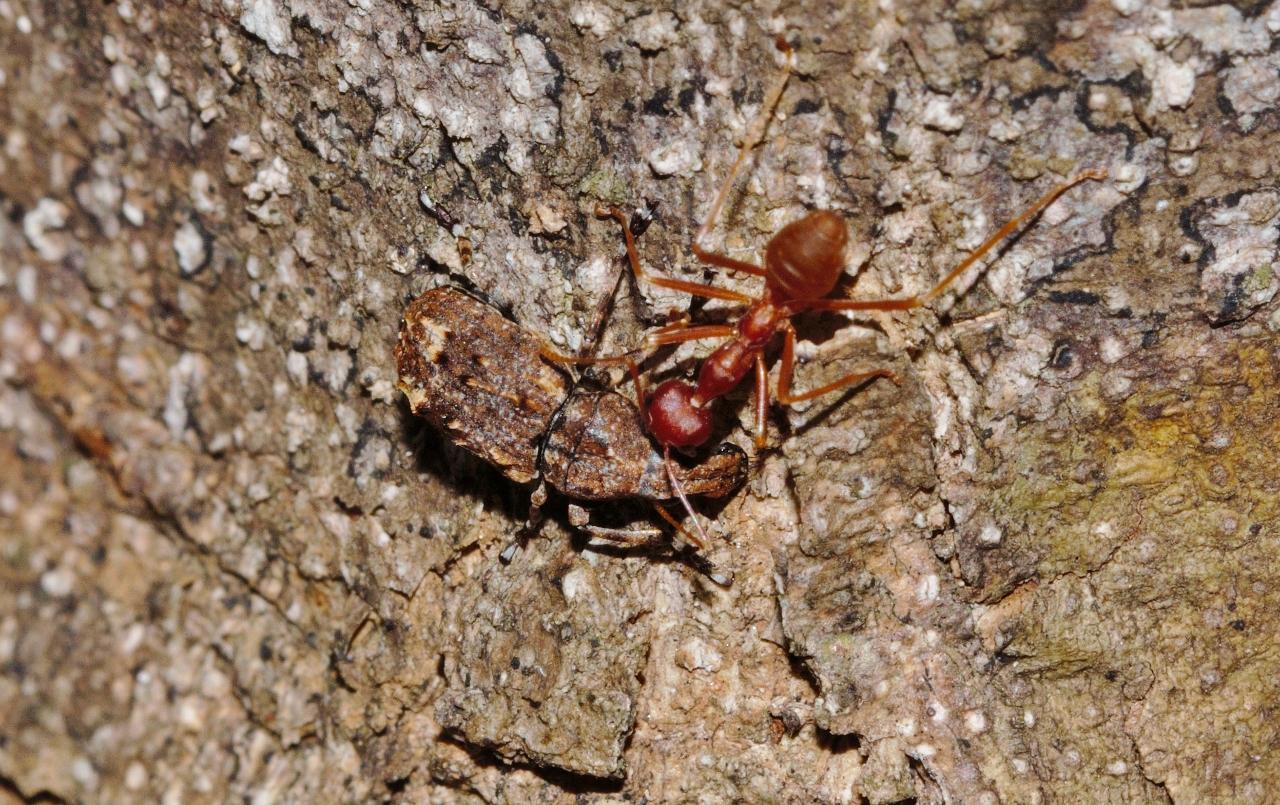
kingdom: Animalia
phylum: Arthropoda
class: Insecta
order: Hymenoptera
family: Formicidae
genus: Oecophylla
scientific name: Oecophylla longinoda
